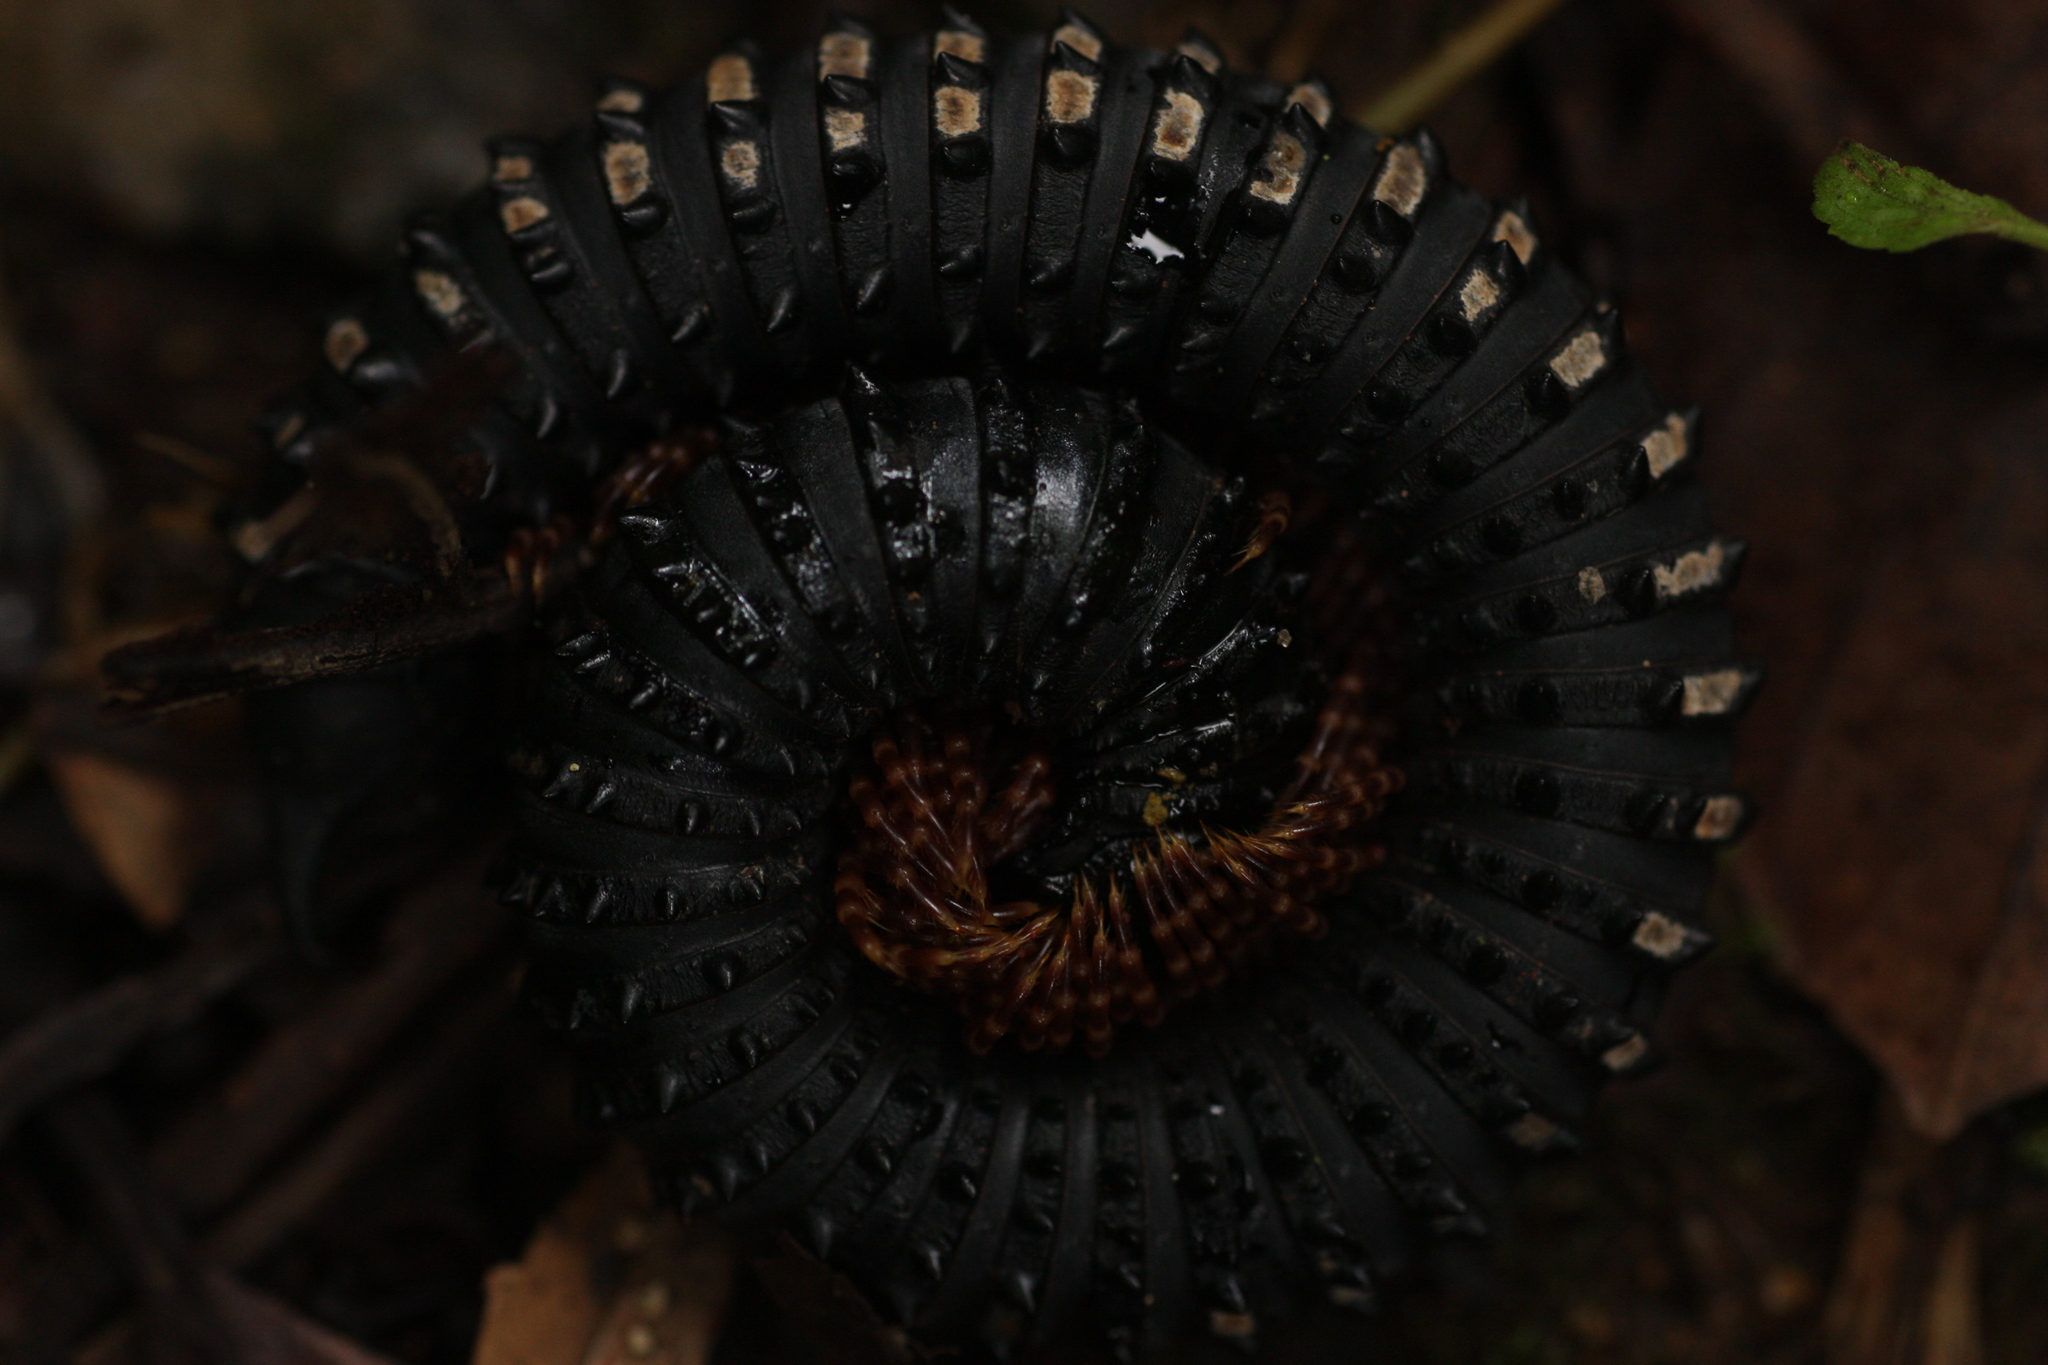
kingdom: Animalia
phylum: Arthropoda
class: Diplopoda
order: Spirobolida
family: Pachybolidae
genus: Eucentrobolus
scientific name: Eucentrobolus tamulus
